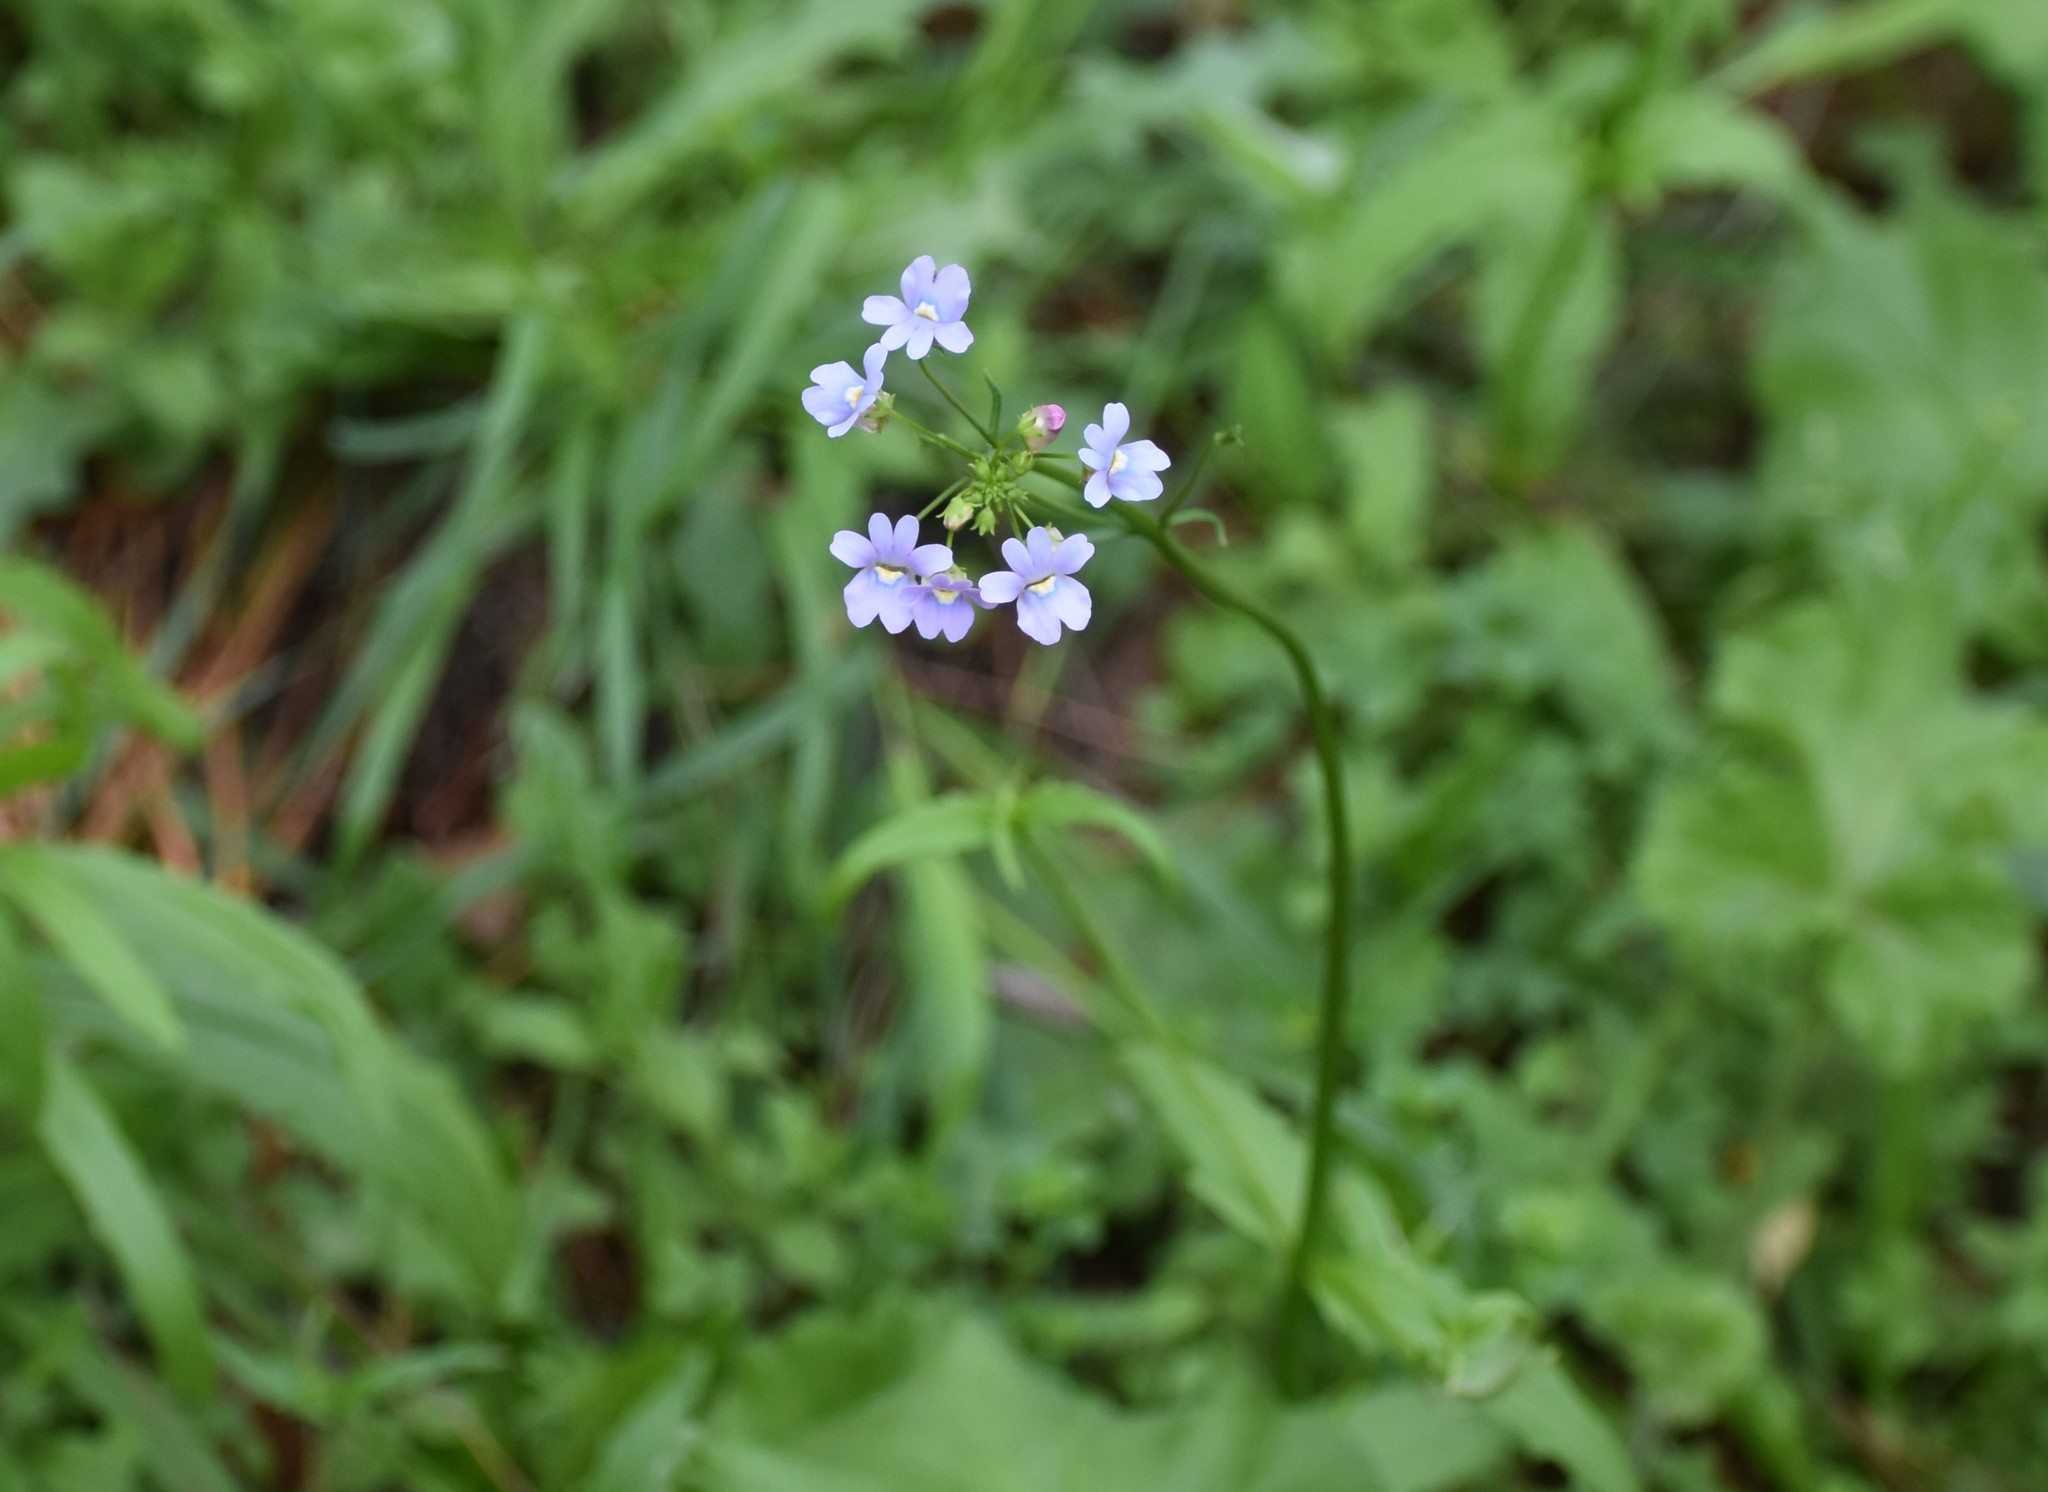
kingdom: Plantae
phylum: Tracheophyta
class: Magnoliopsida
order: Lamiales
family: Scrophulariaceae
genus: Nemesia
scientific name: Nemesia affinis
